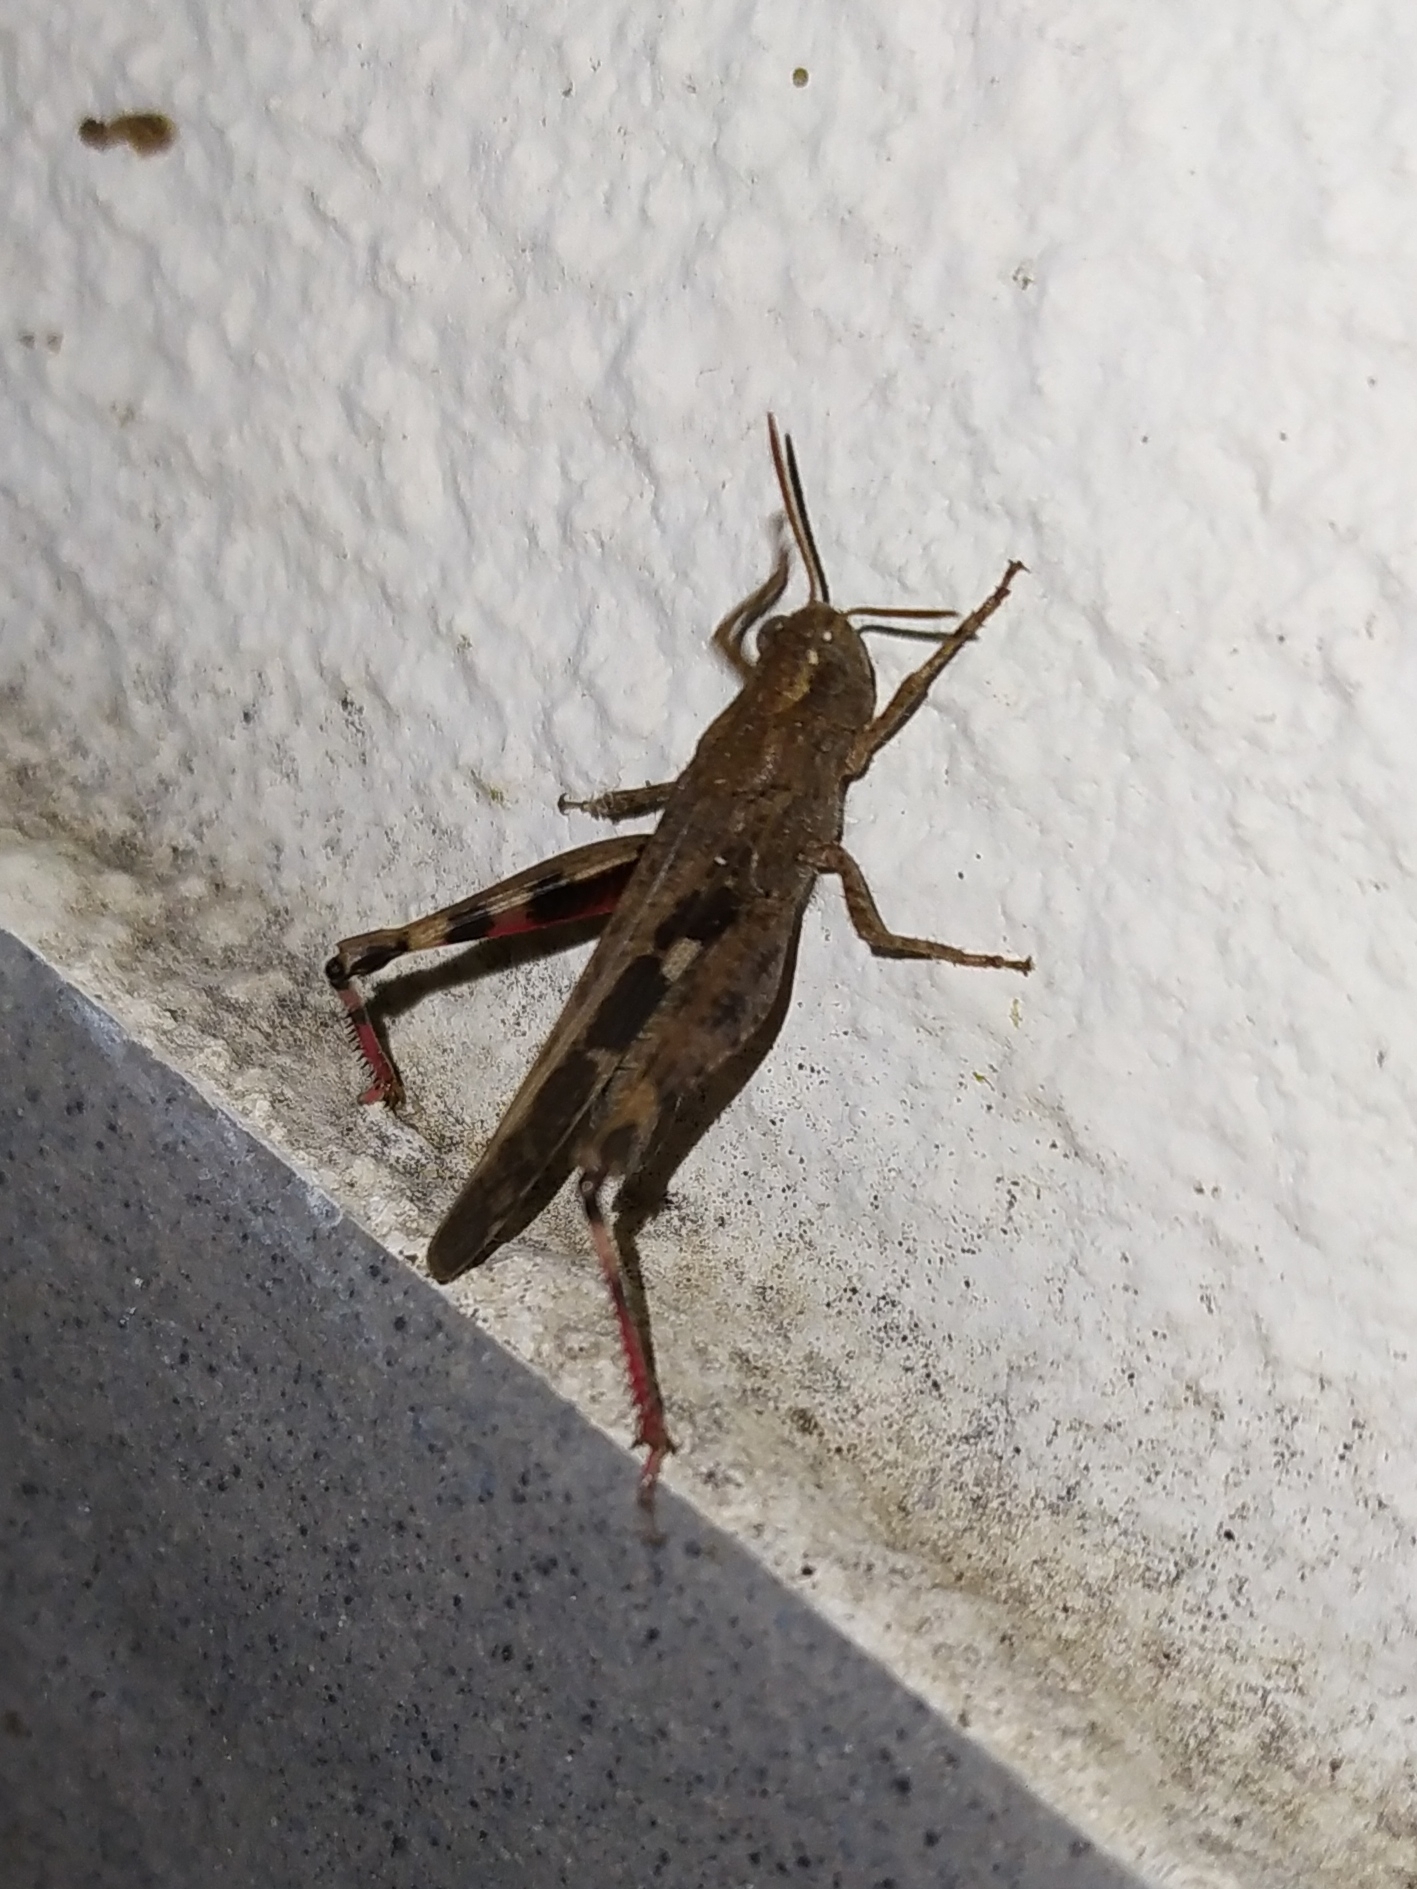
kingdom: Animalia
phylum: Arthropoda
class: Insecta
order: Orthoptera
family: Acrididae
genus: Aiolopus
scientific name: Aiolopus strepens
